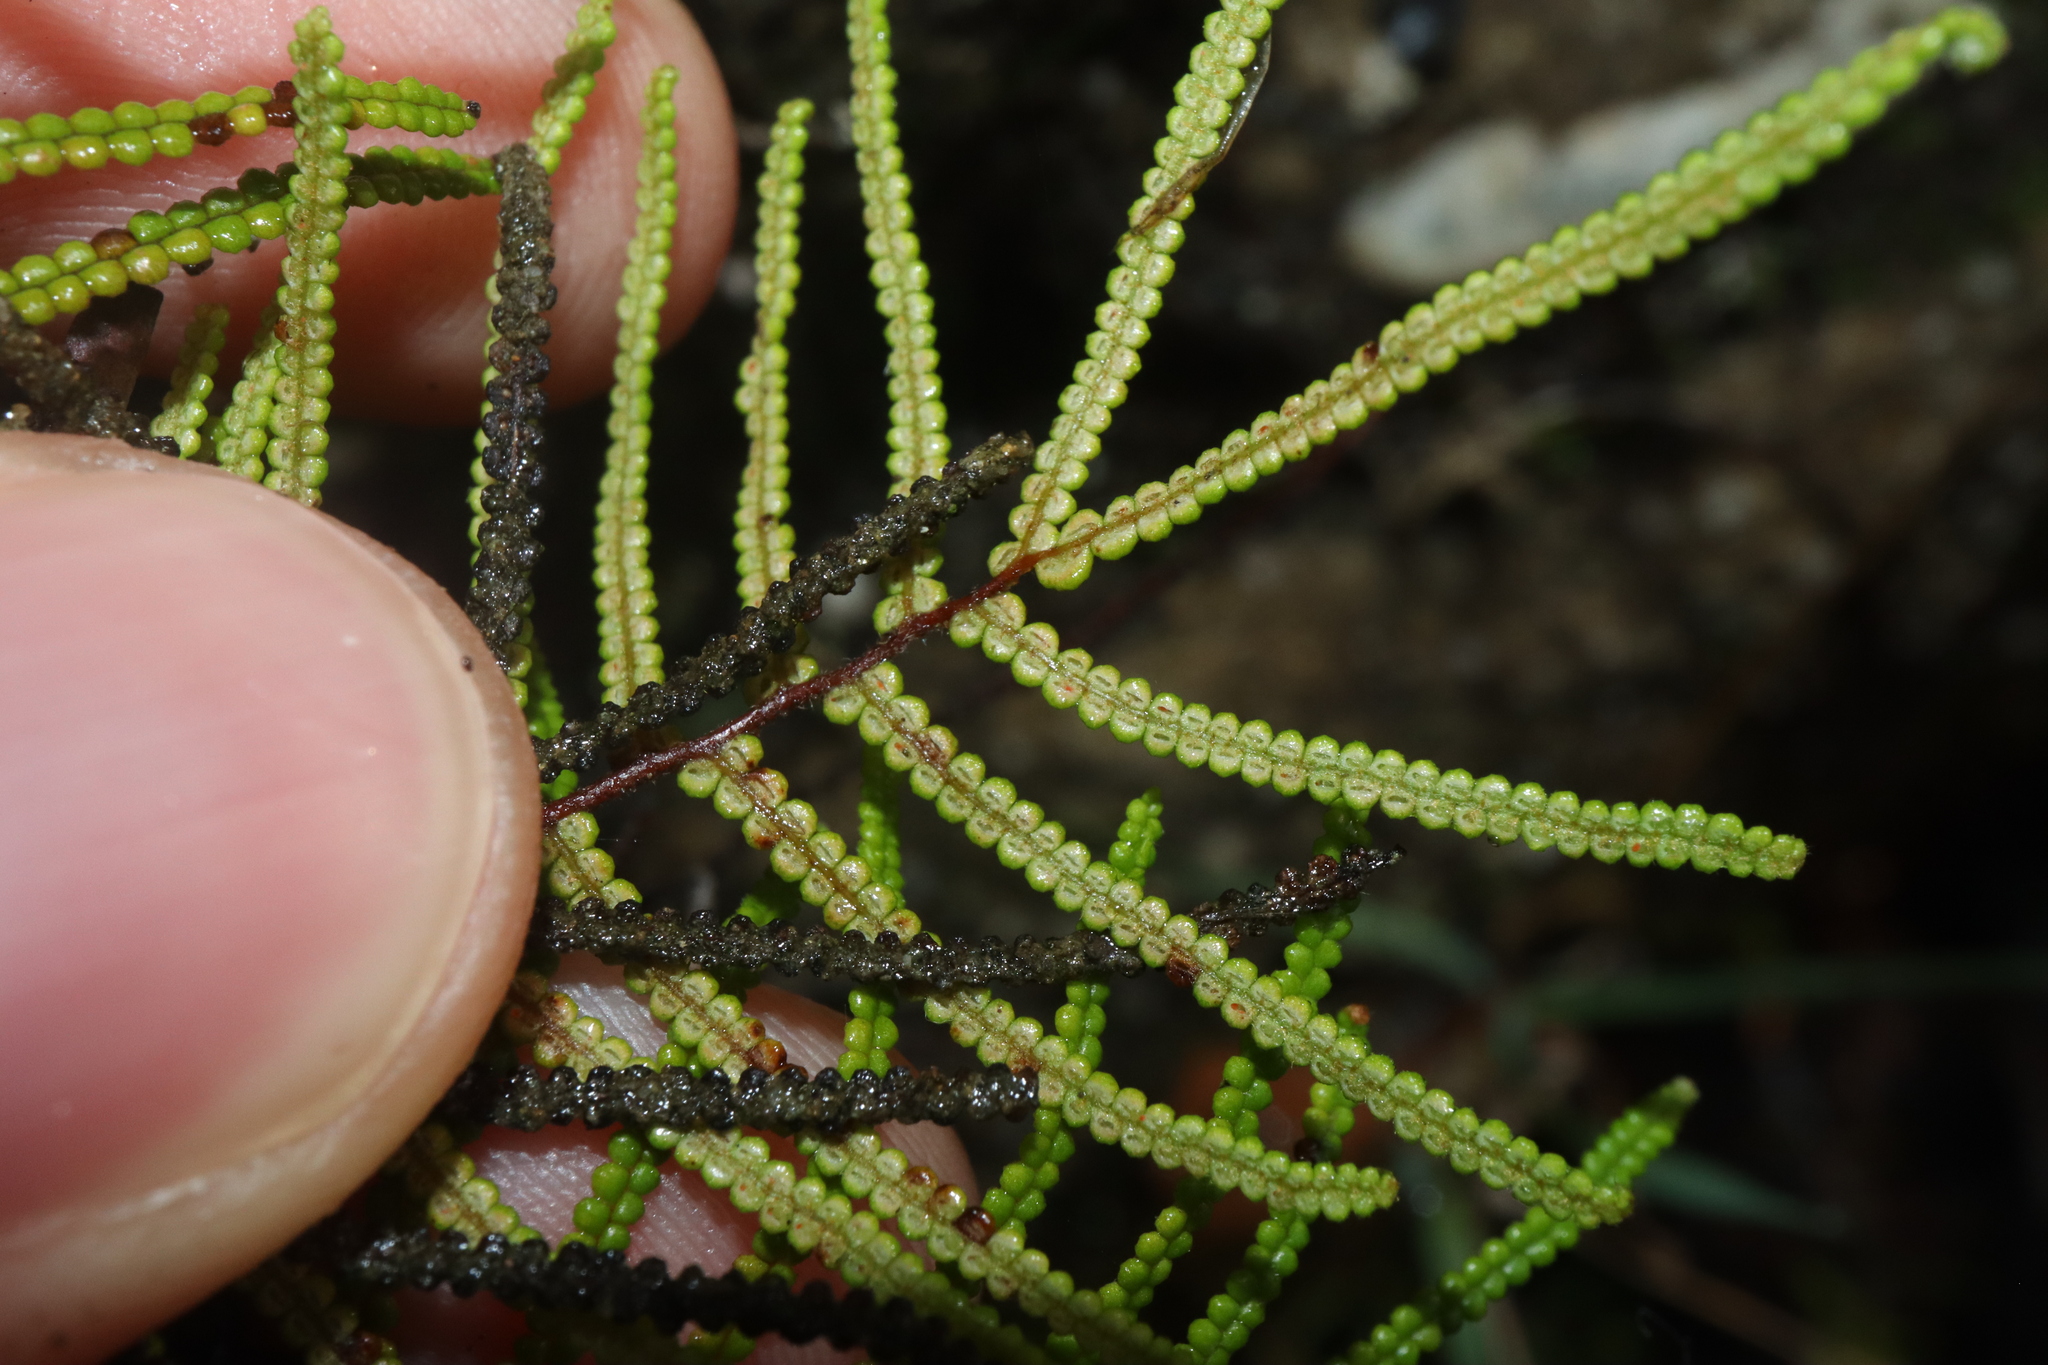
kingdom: Plantae
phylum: Tracheophyta
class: Polypodiopsida
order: Gleicheniales
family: Gleicheniaceae
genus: Gleichenia
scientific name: Gleichenia dicarpa
